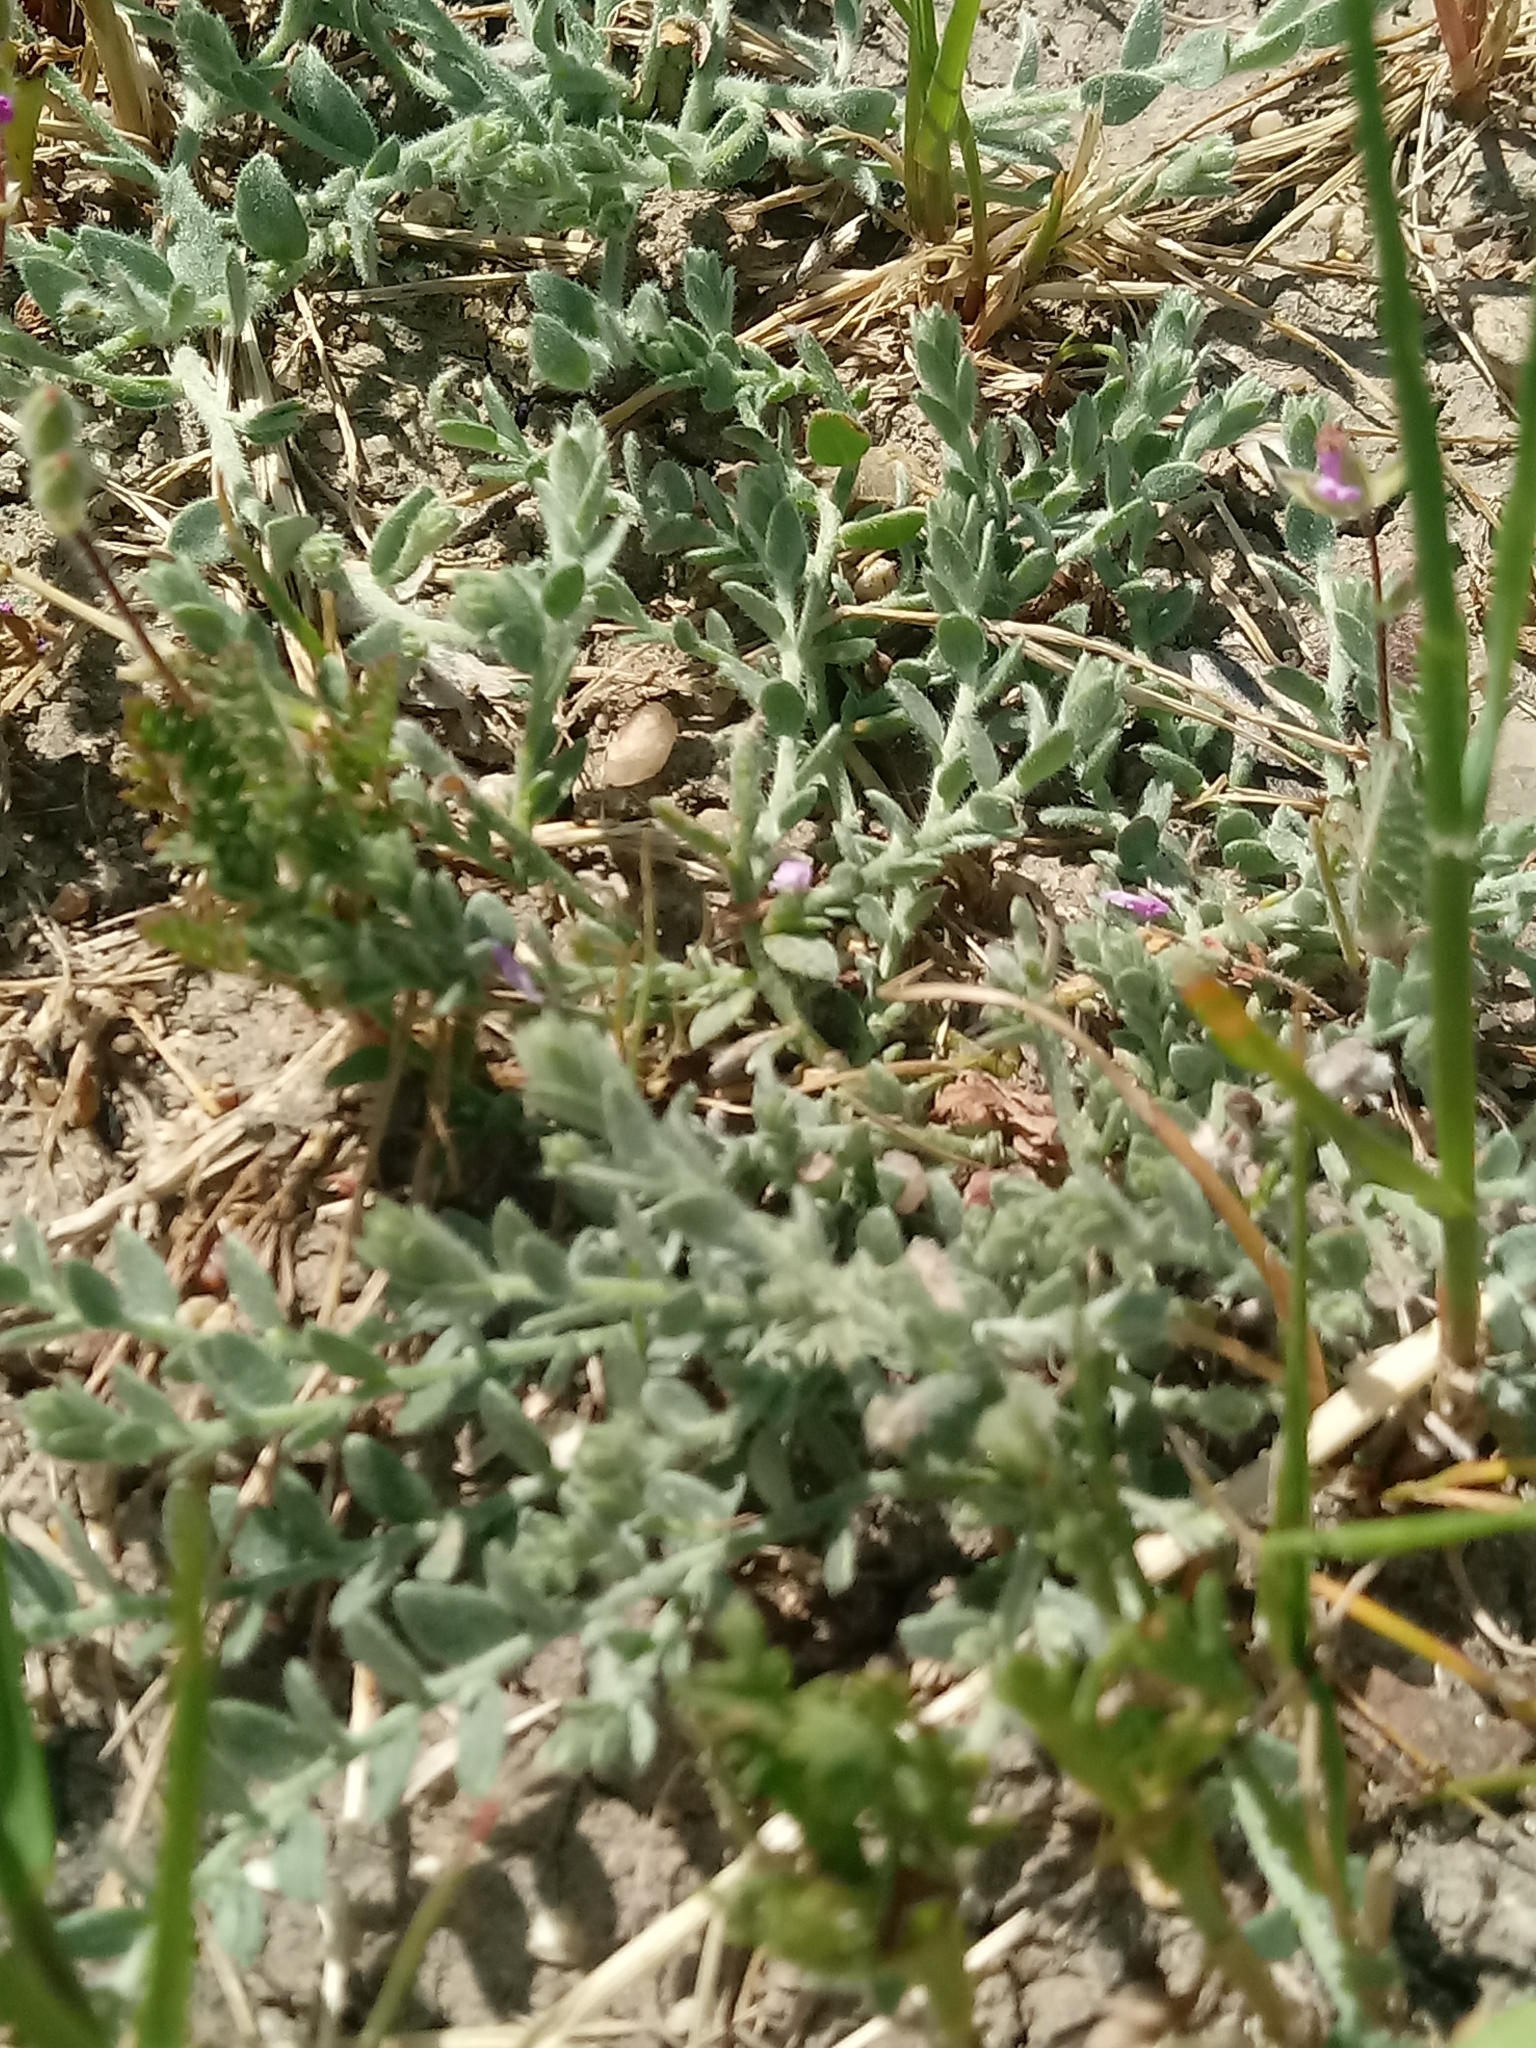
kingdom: Plantae
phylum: Tracheophyta
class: Magnoliopsida
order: Solanales
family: Convolvulaceae
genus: Cressa
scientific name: Cressa truxillensis
